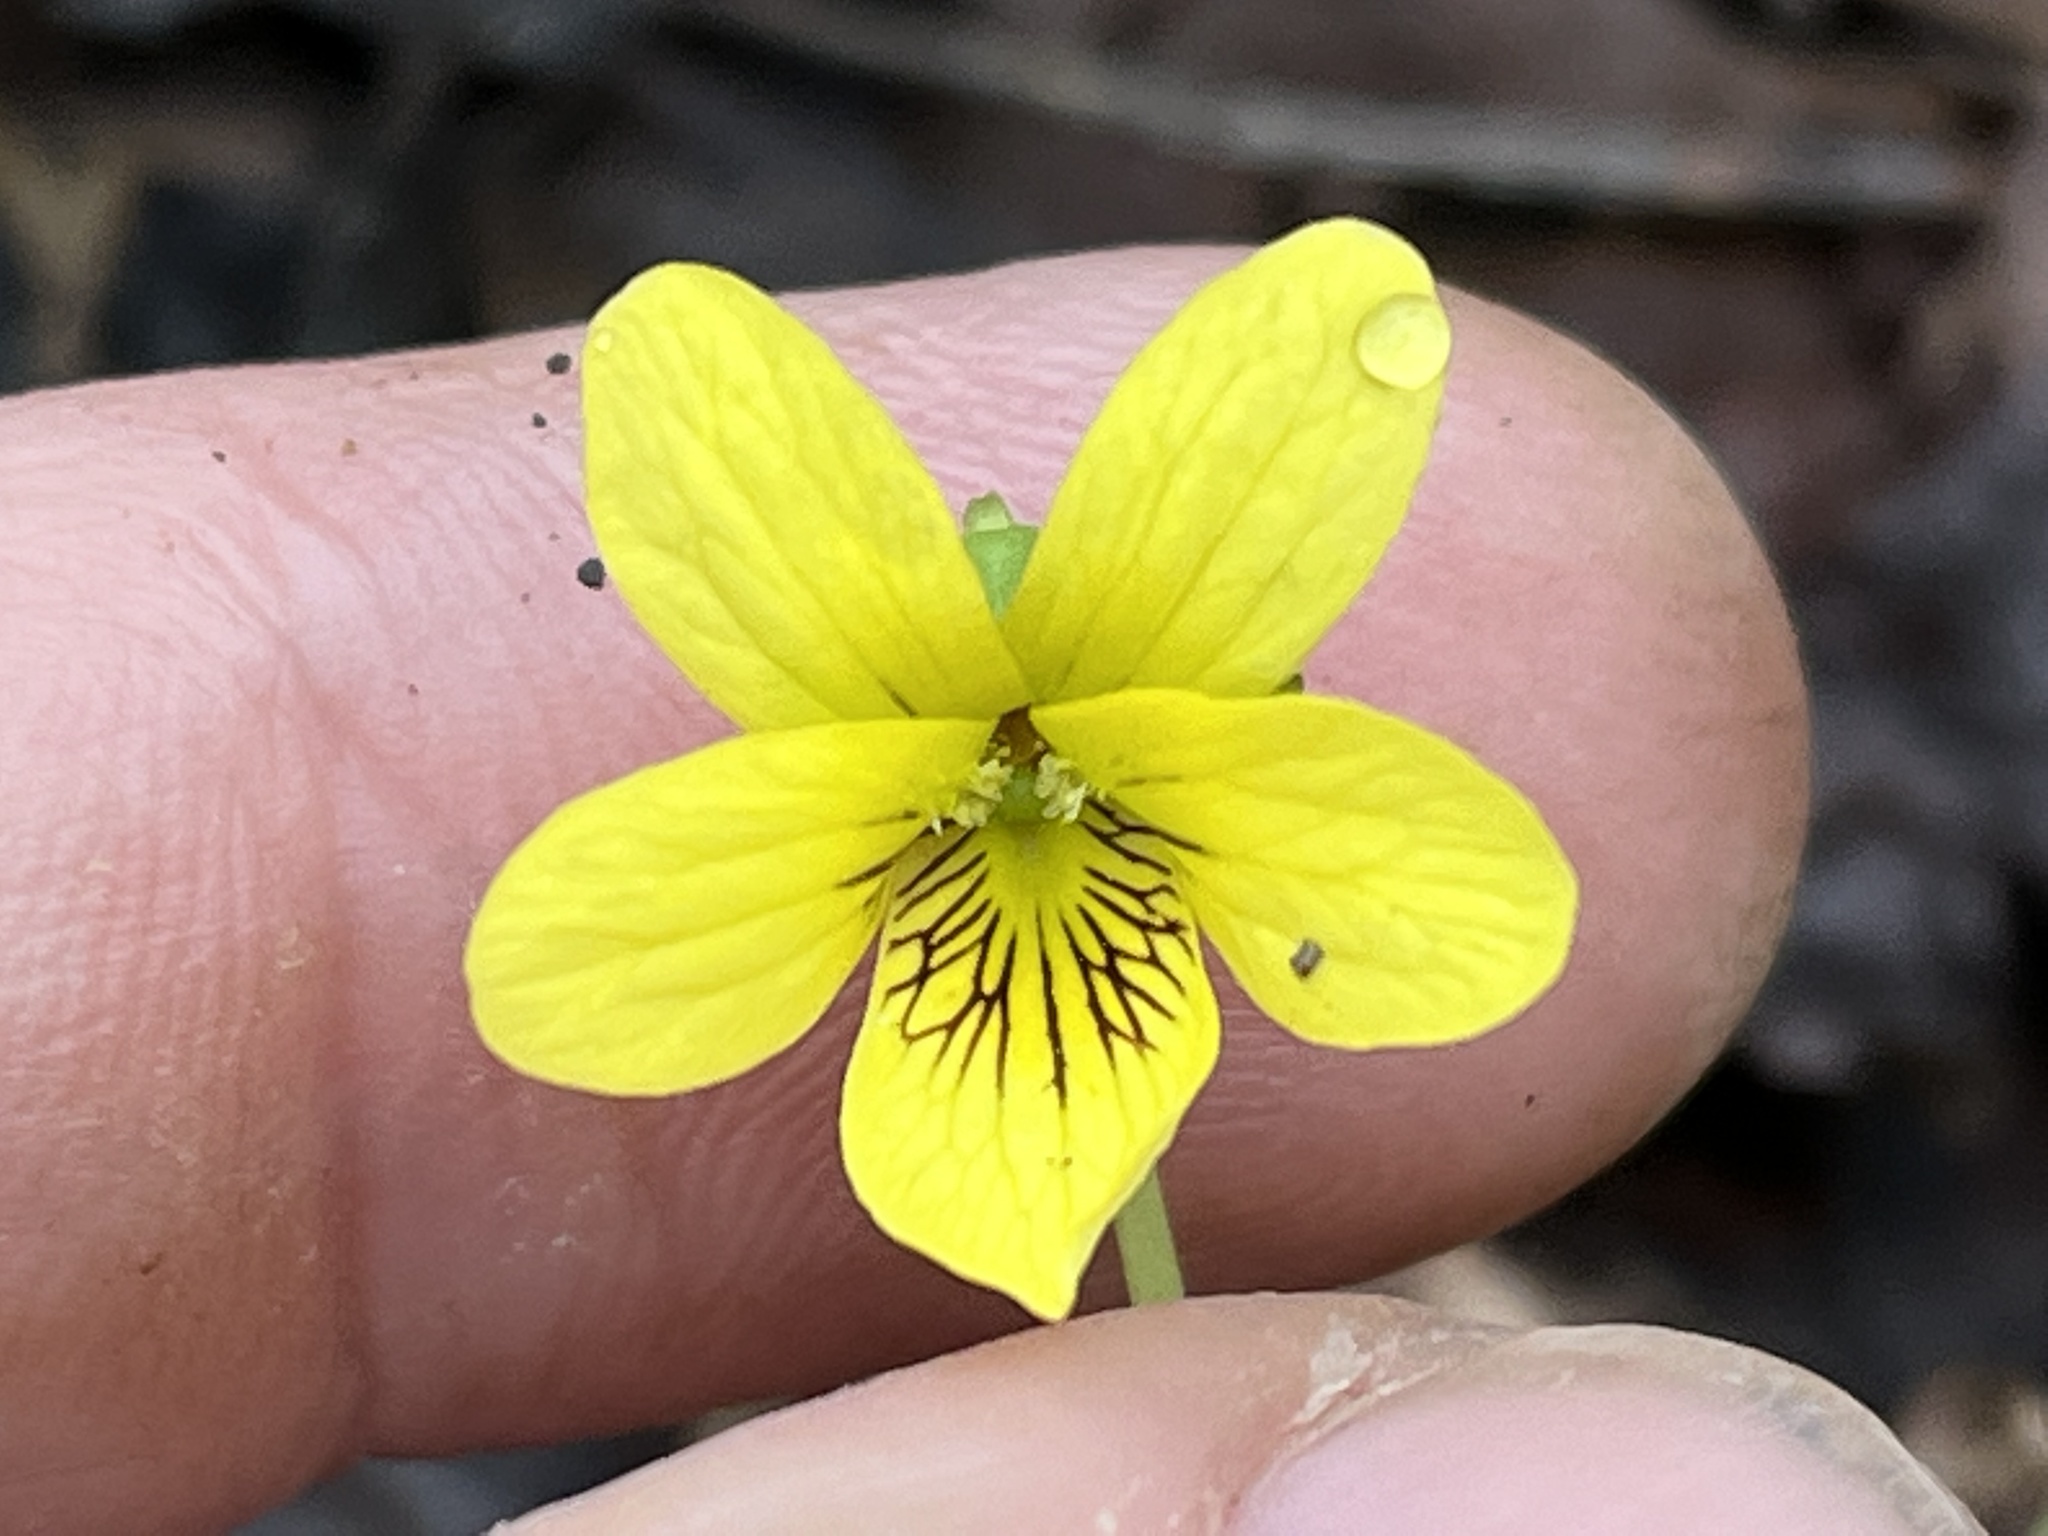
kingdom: Plantae
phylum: Tracheophyta
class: Magnoliopsida
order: Malpighiales
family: Violaceae
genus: Viola
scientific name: Viola eriocarpa
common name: Smooth yellow violet
